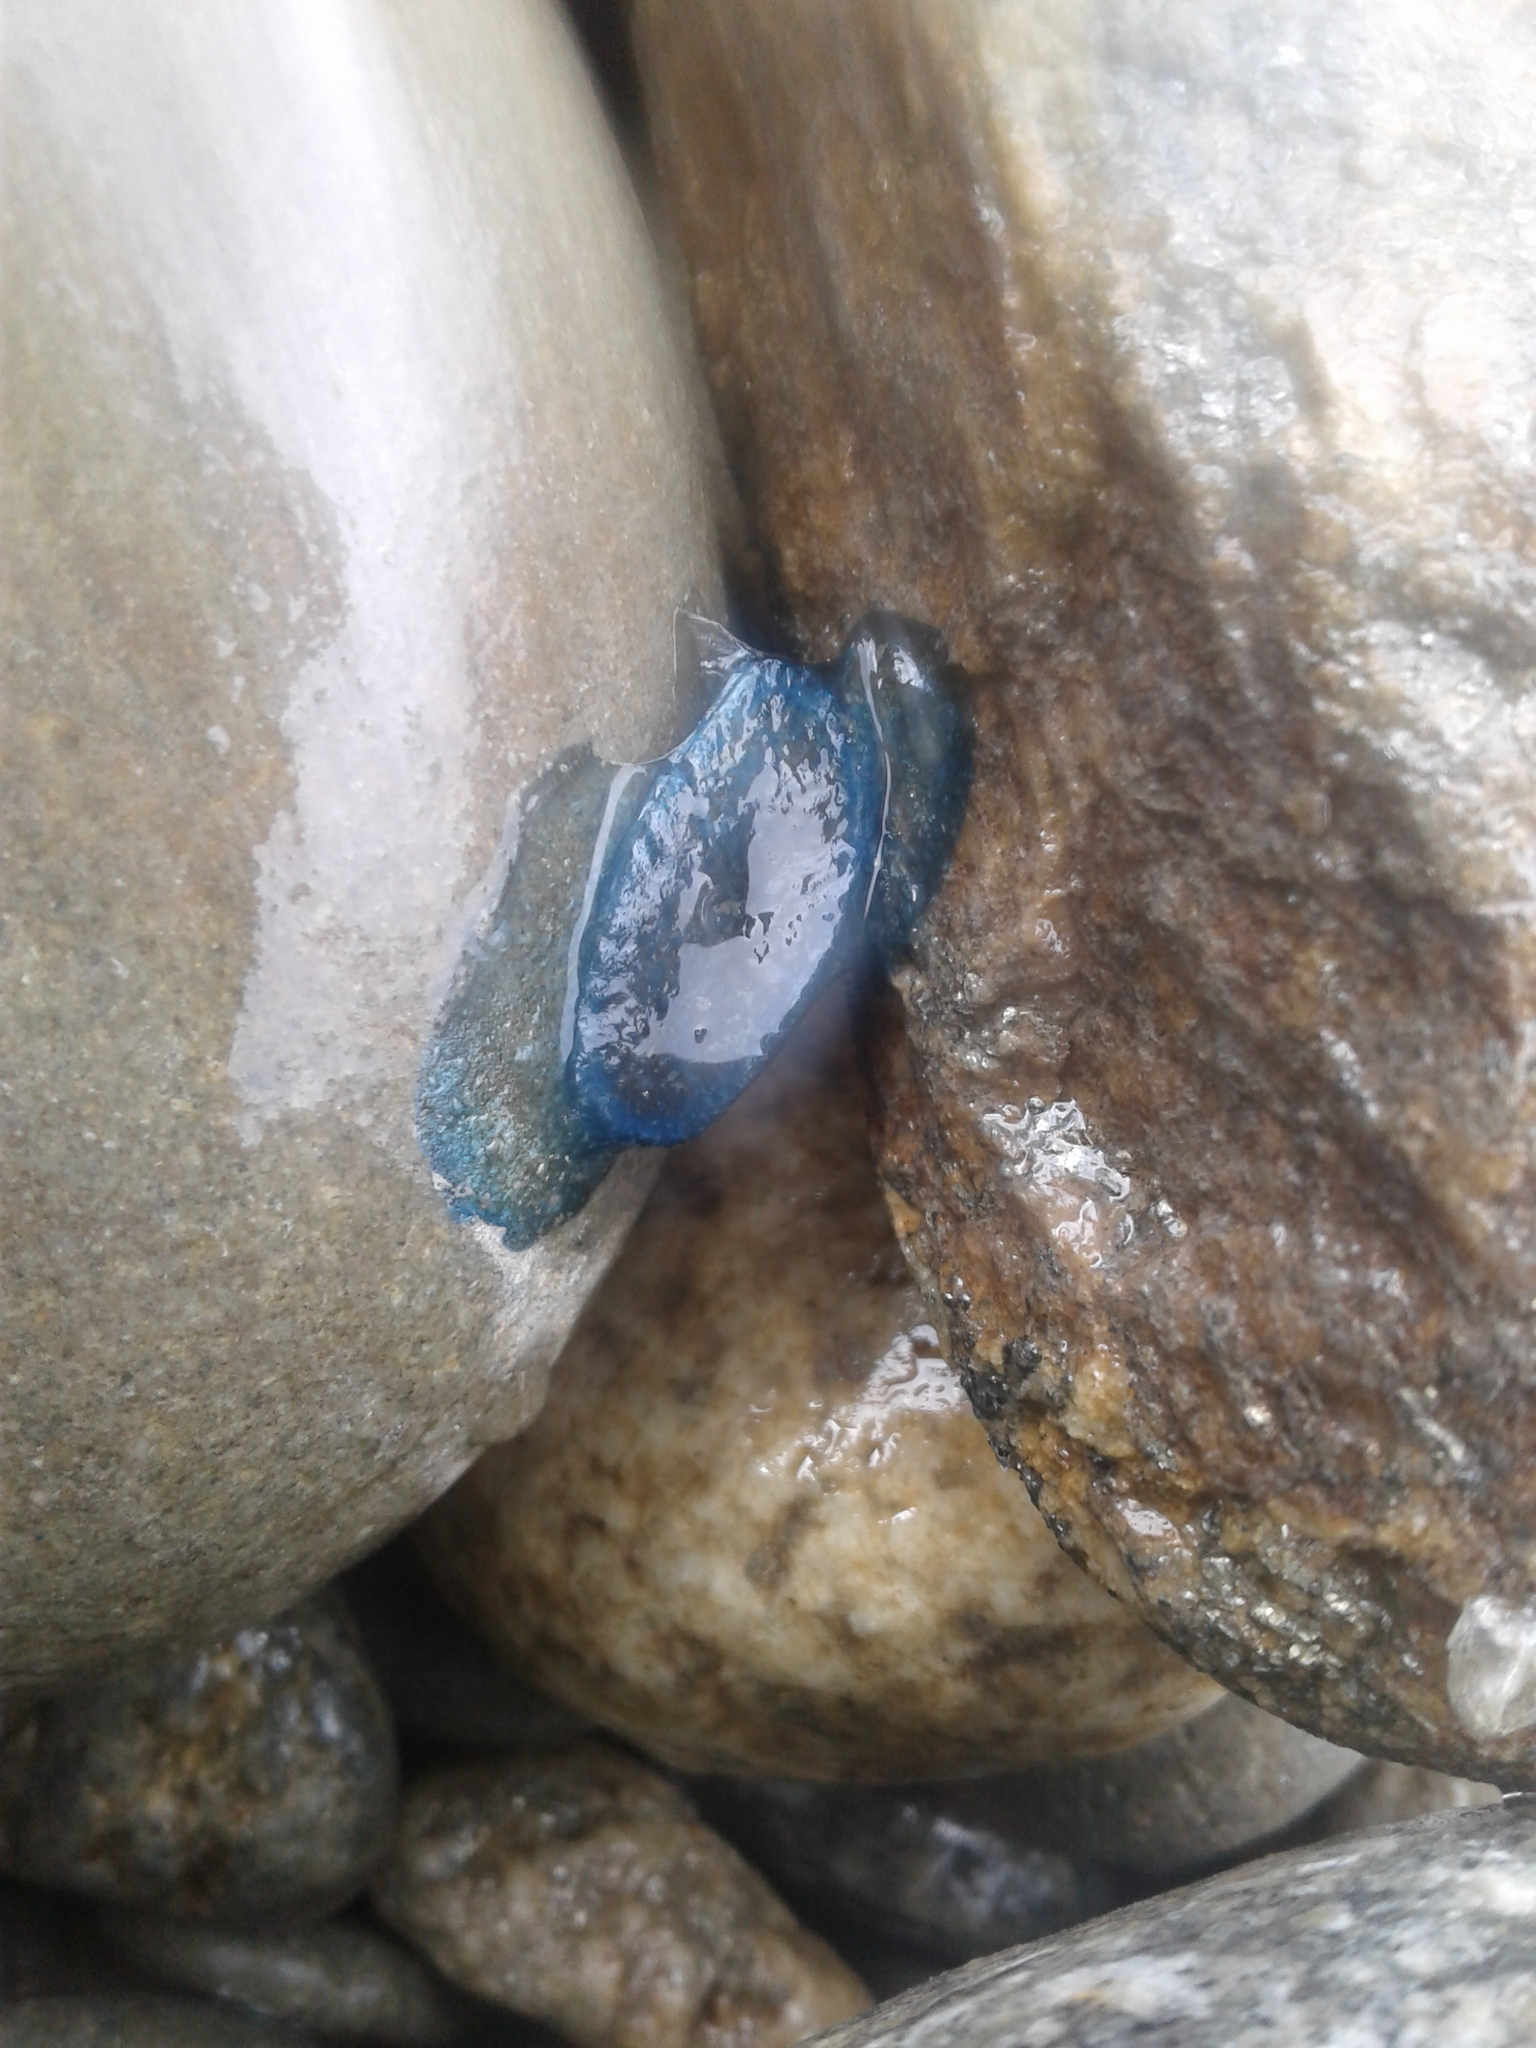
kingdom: Animalia
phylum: Cnidaria
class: Hydrozoa
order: Siphonophorae
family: Physaliidae
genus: Physalia
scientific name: Physalia physalis
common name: Portuguese man-of-war
